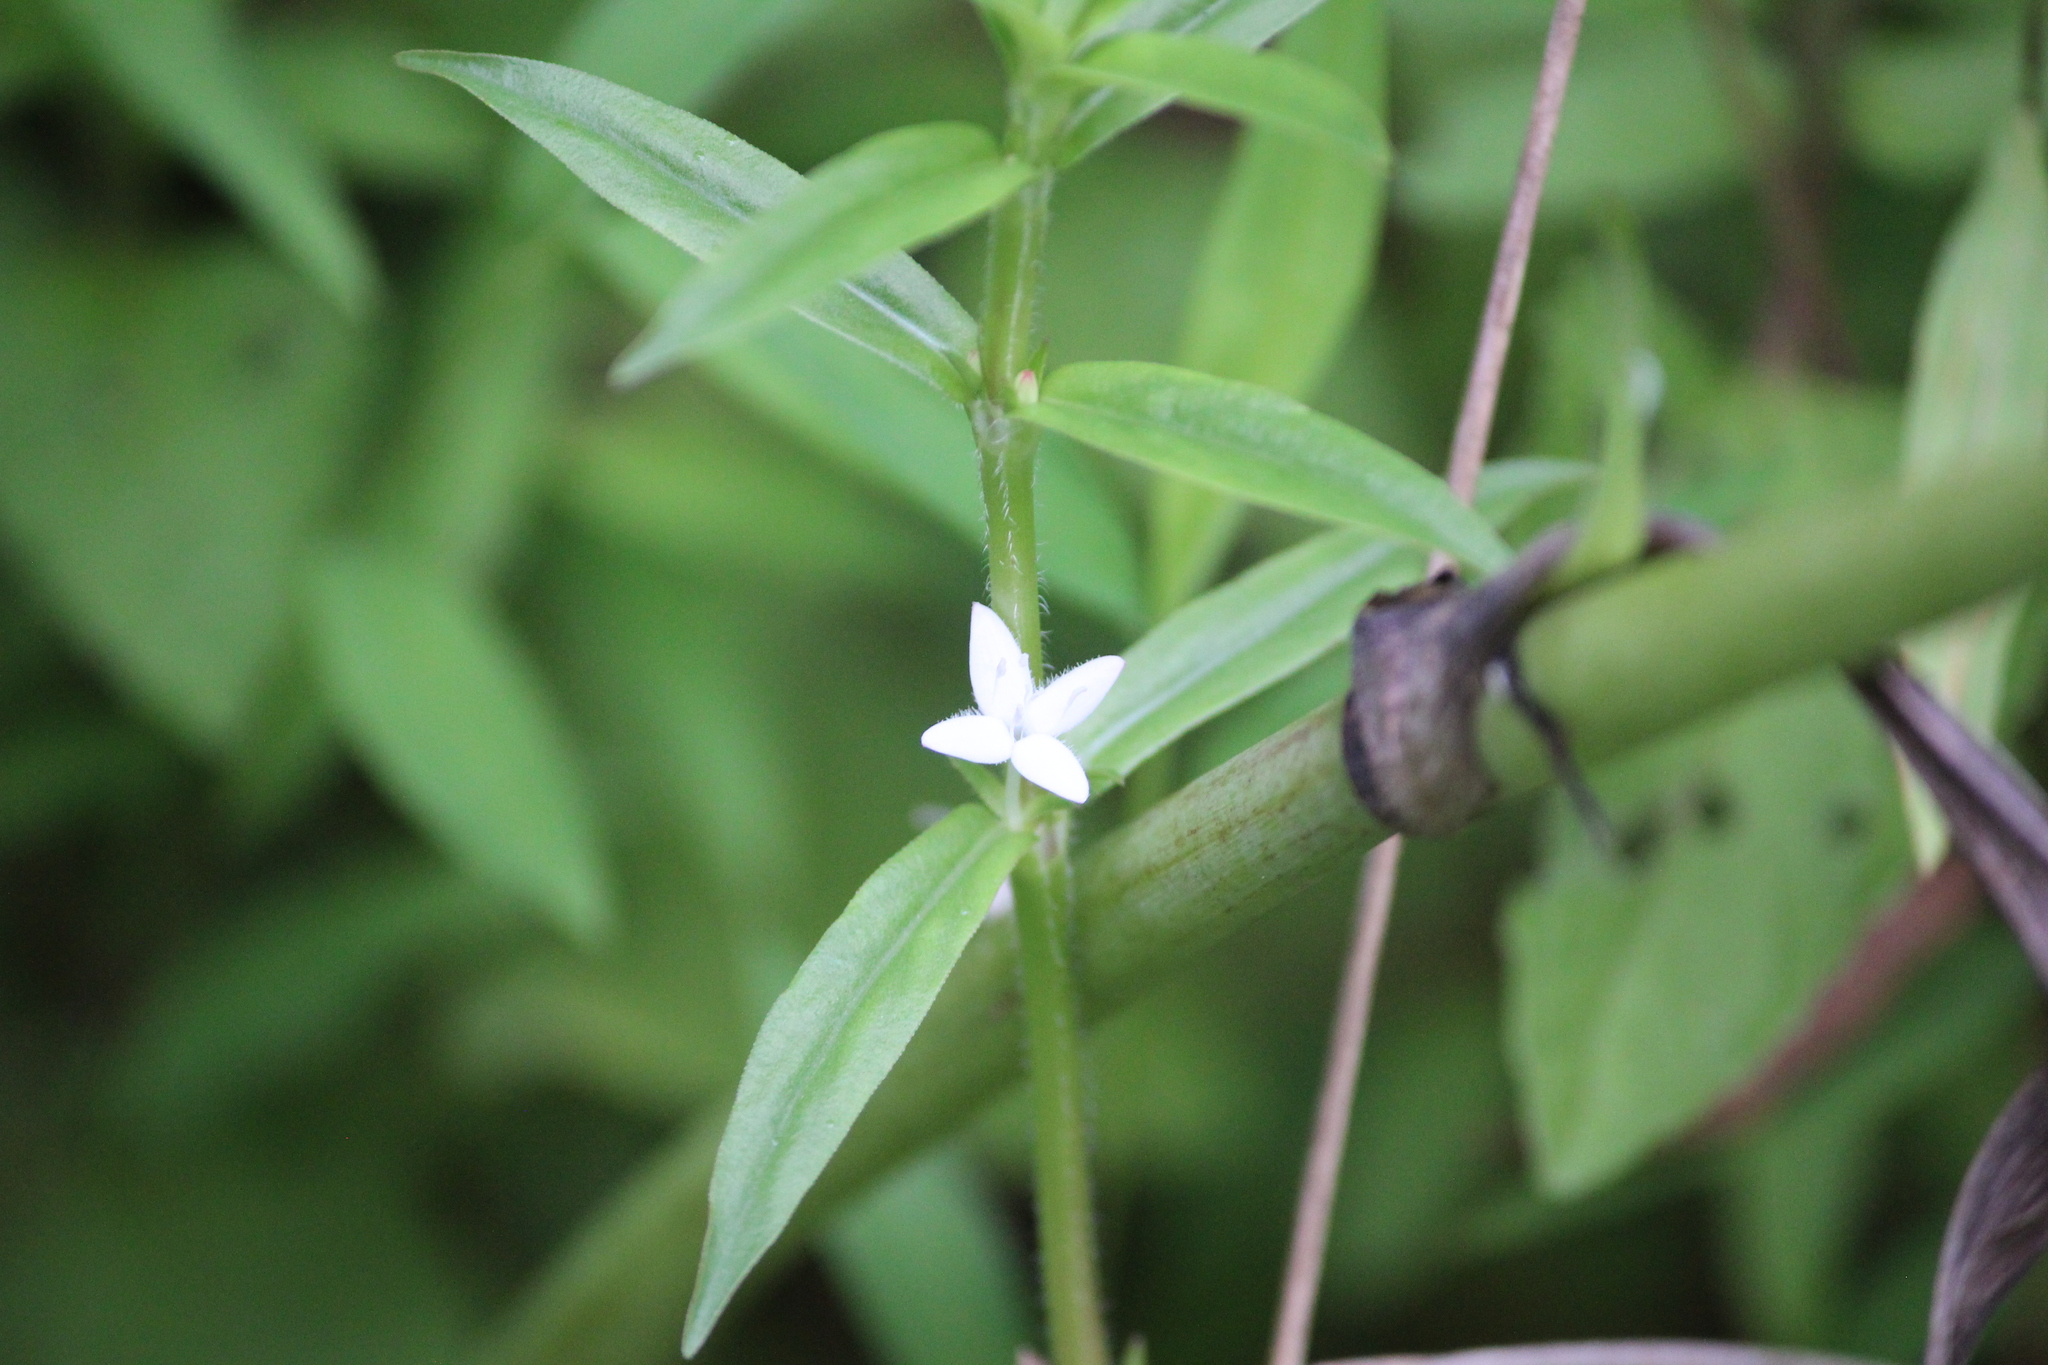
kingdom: Plantae
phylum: Tracheophyta
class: Magnoliopsida
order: Gentianales
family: Rubiaceae
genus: Diodia
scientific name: Diodia virginiana
